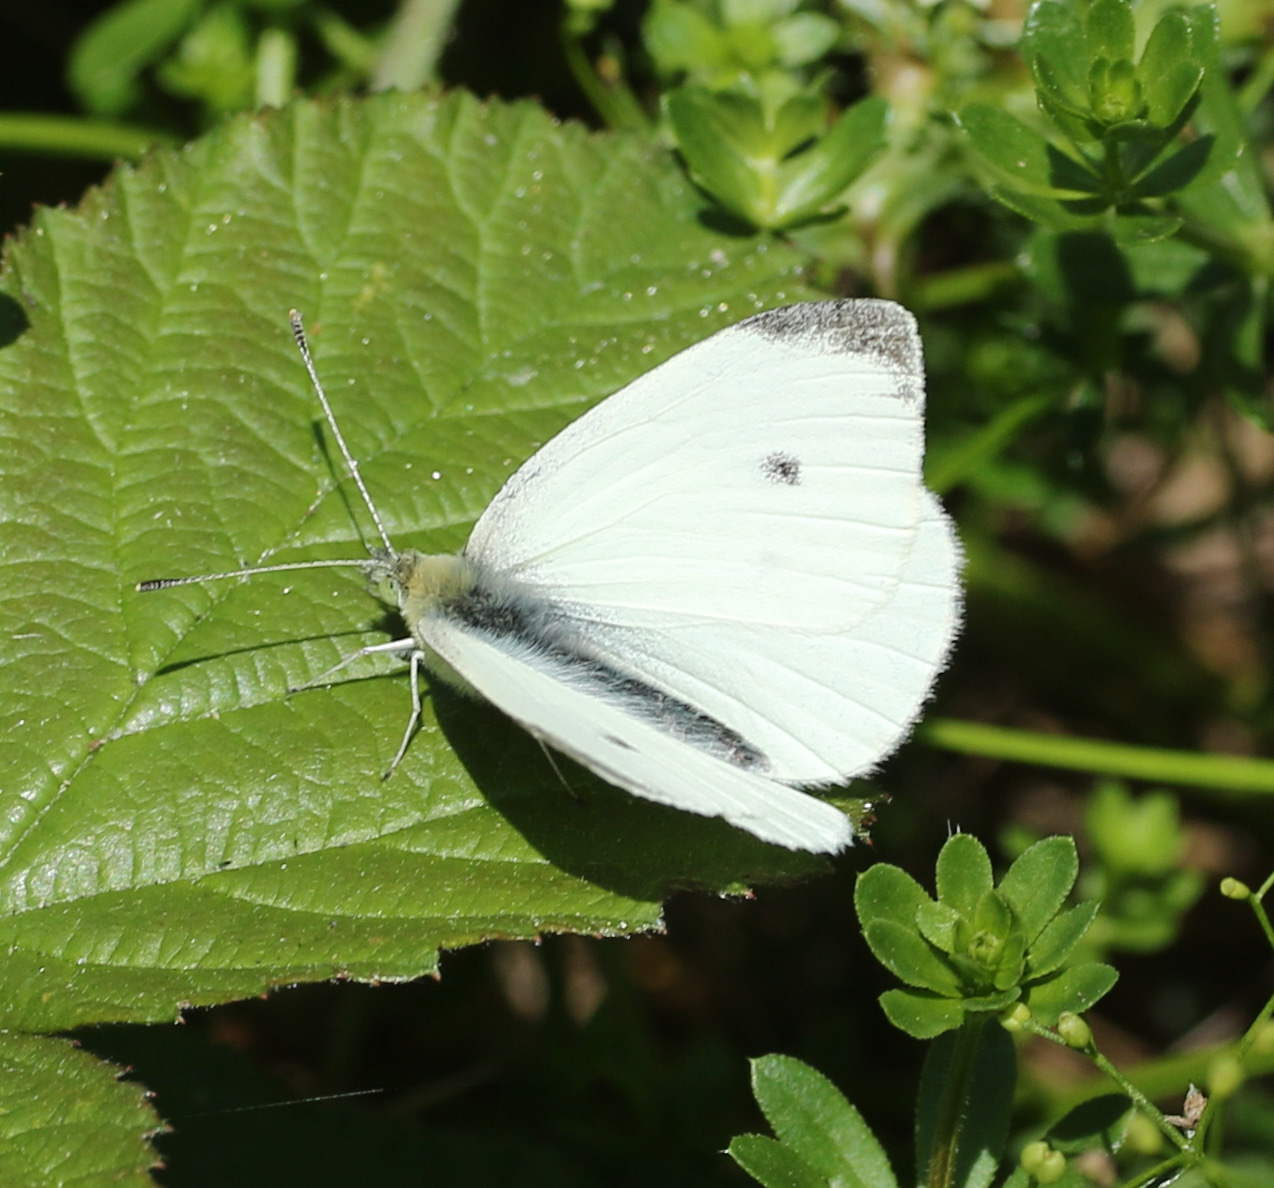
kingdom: Animalia
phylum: Arthropoda
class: Insecta
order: Lepidoptera
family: Pieridae
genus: Pieris
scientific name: Pieris rapae
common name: Small white
